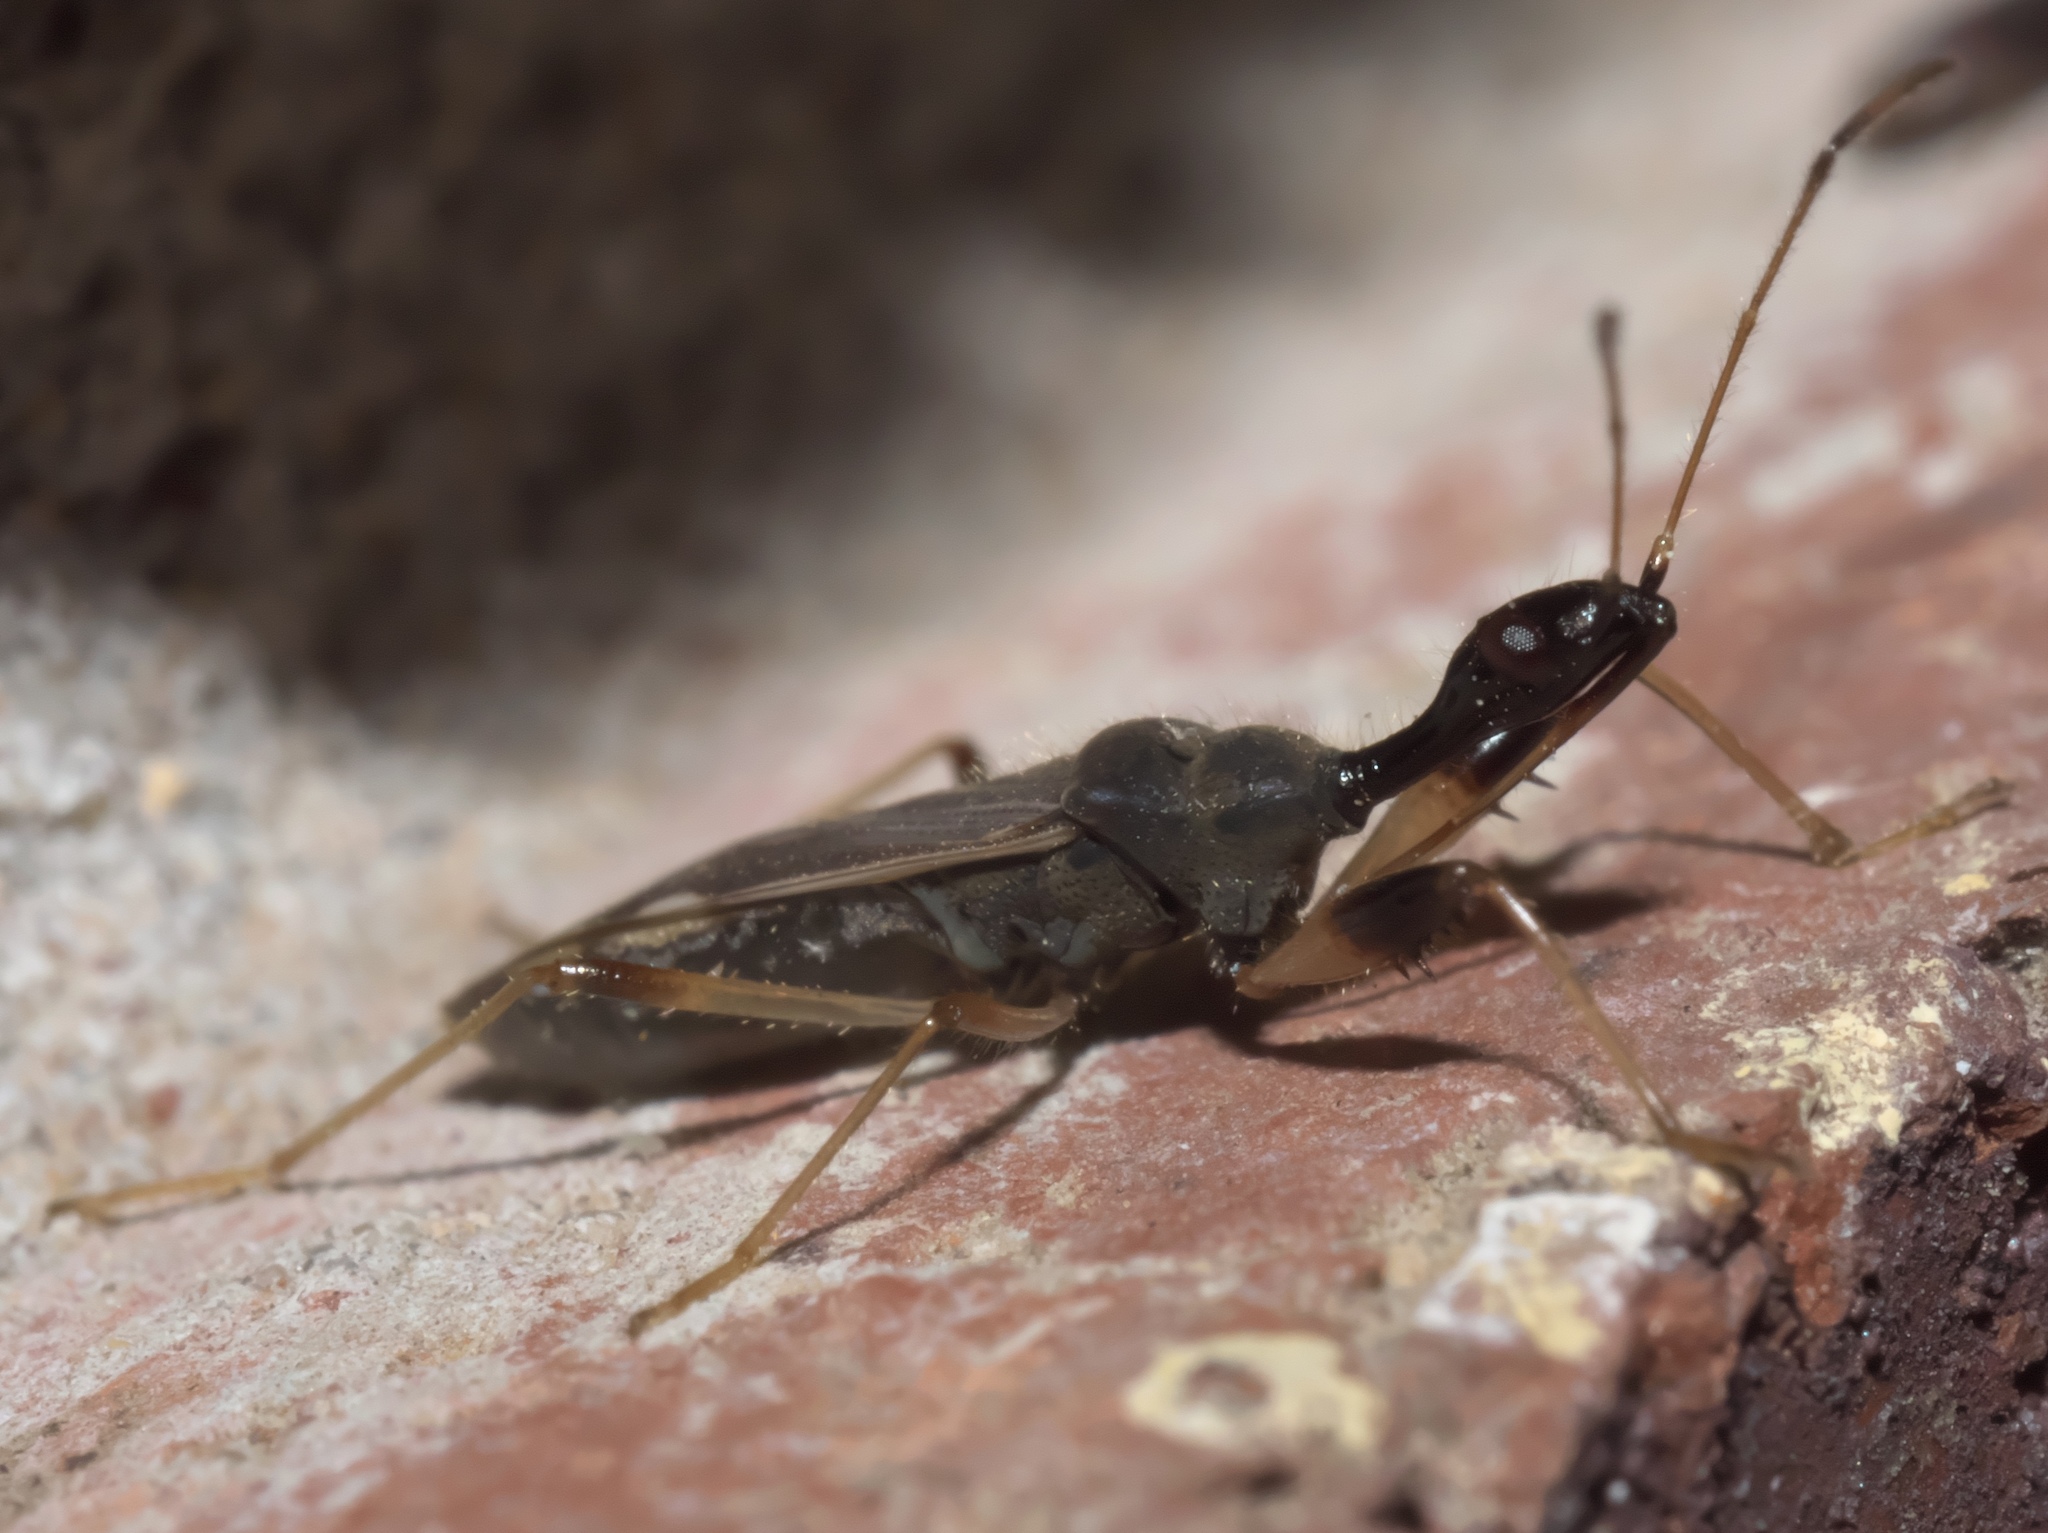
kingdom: Animalia
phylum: Arthropoda
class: Insecta
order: Hemiptera
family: Rhyparochromidae
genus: Myodocha
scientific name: Myodocha serripes
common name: Long-necked seed bug
